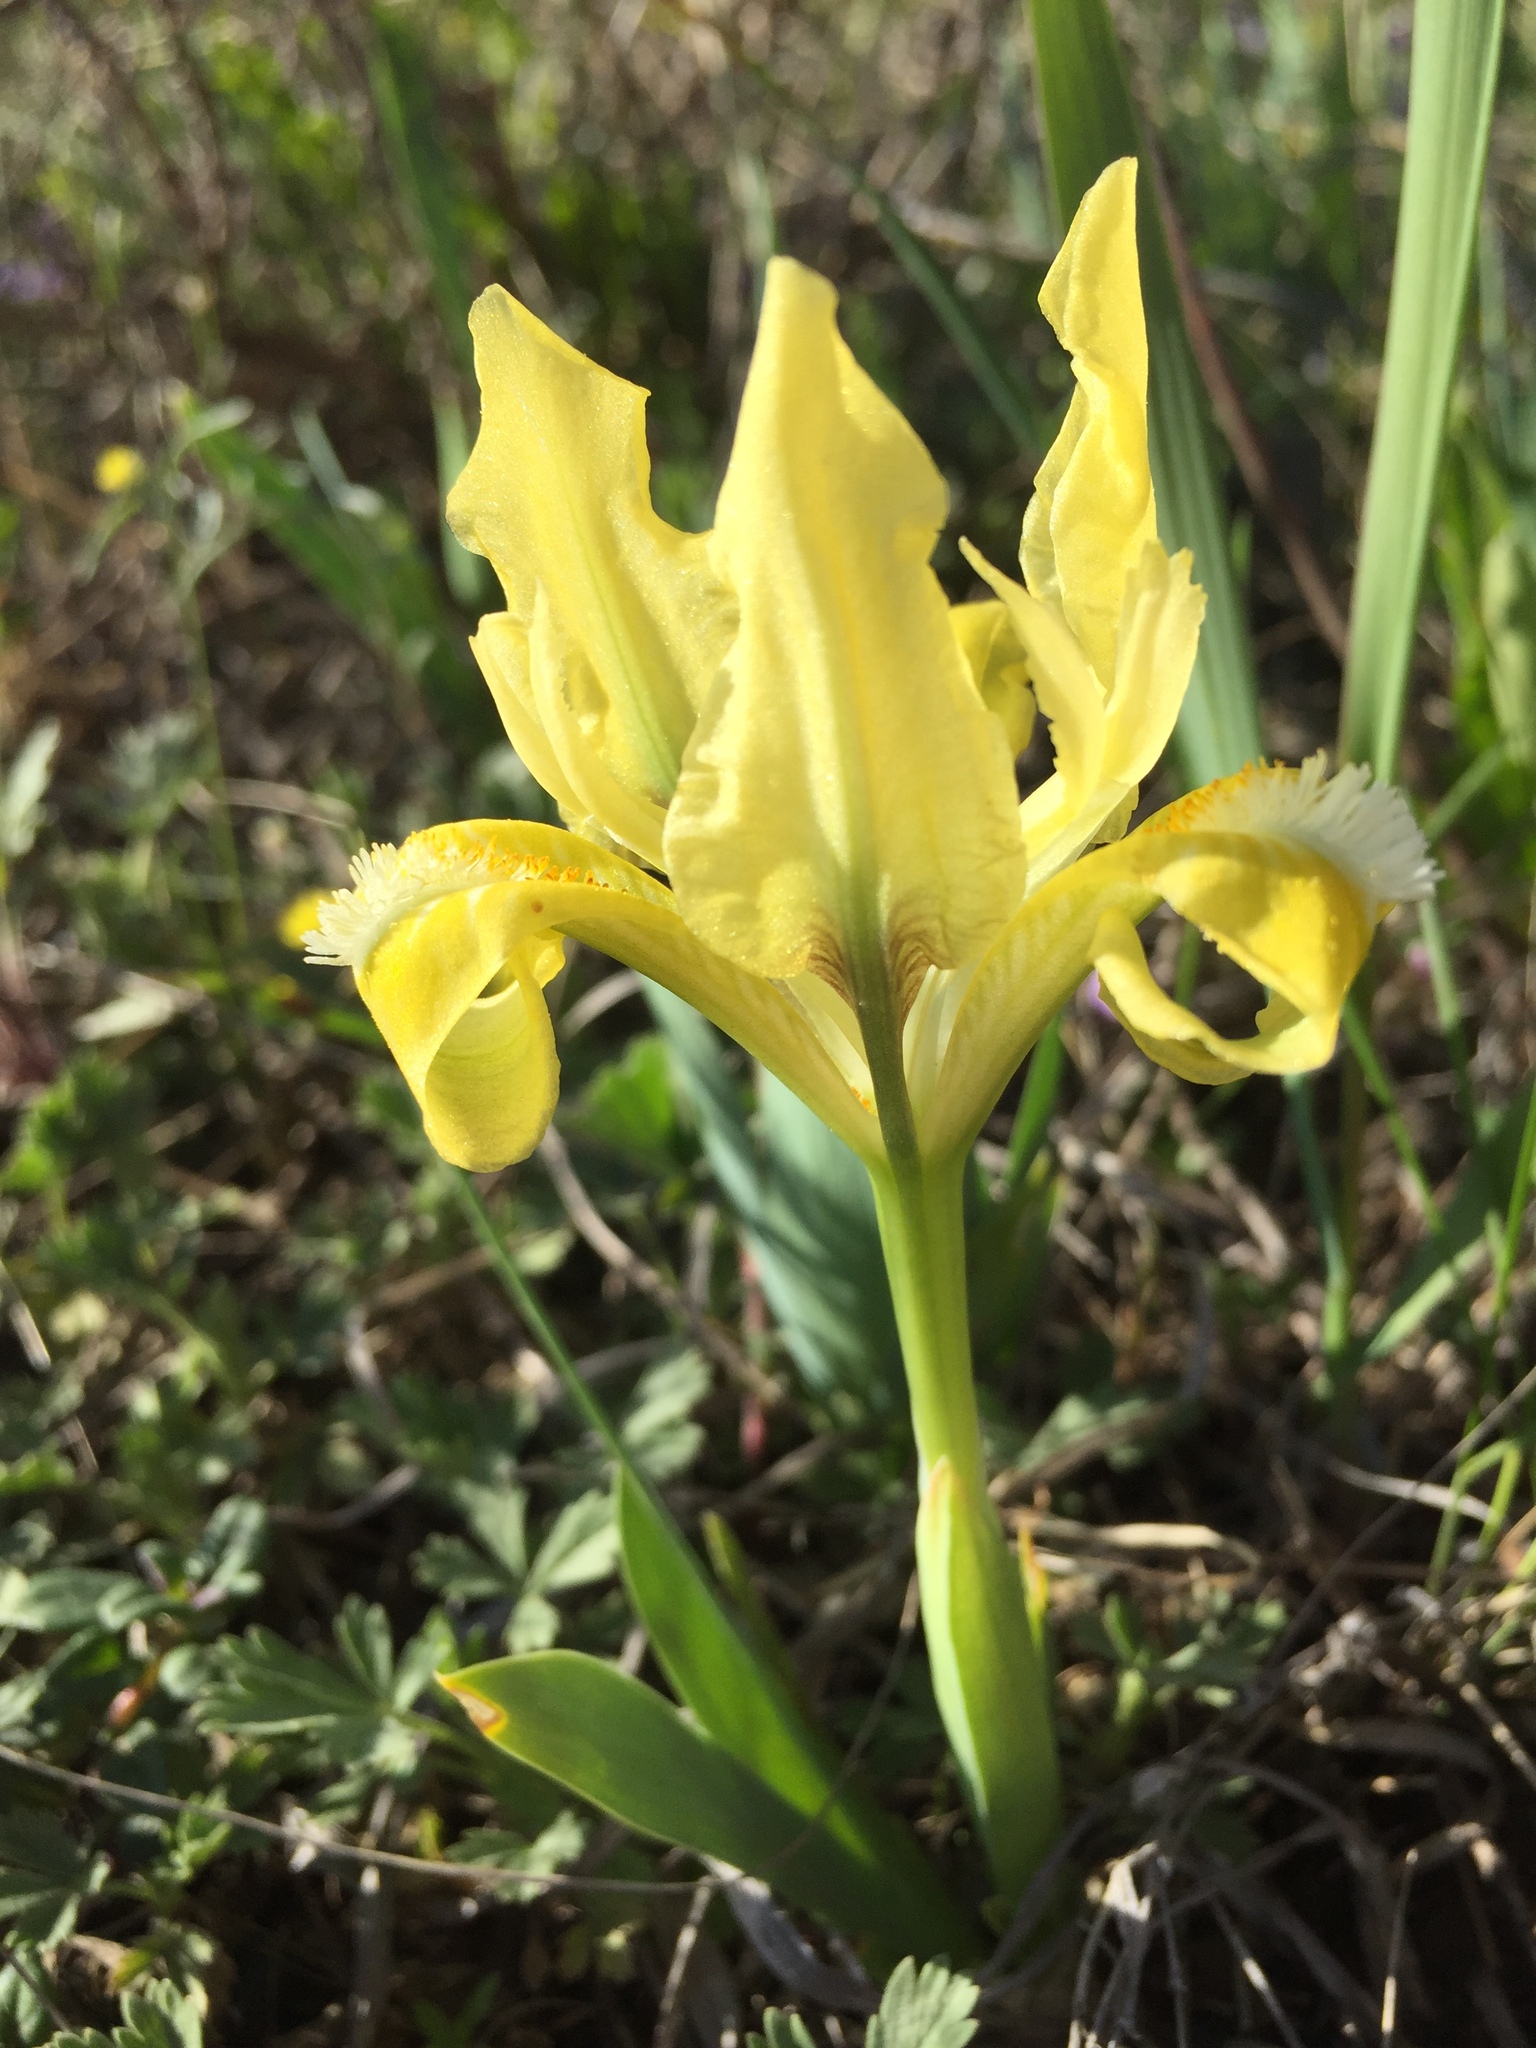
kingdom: Plantae
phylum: Tracheophyta
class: Liliopsida
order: Asparagales
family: Iridaceae
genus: Iris
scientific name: Iris pumila
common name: Dwarf iris
